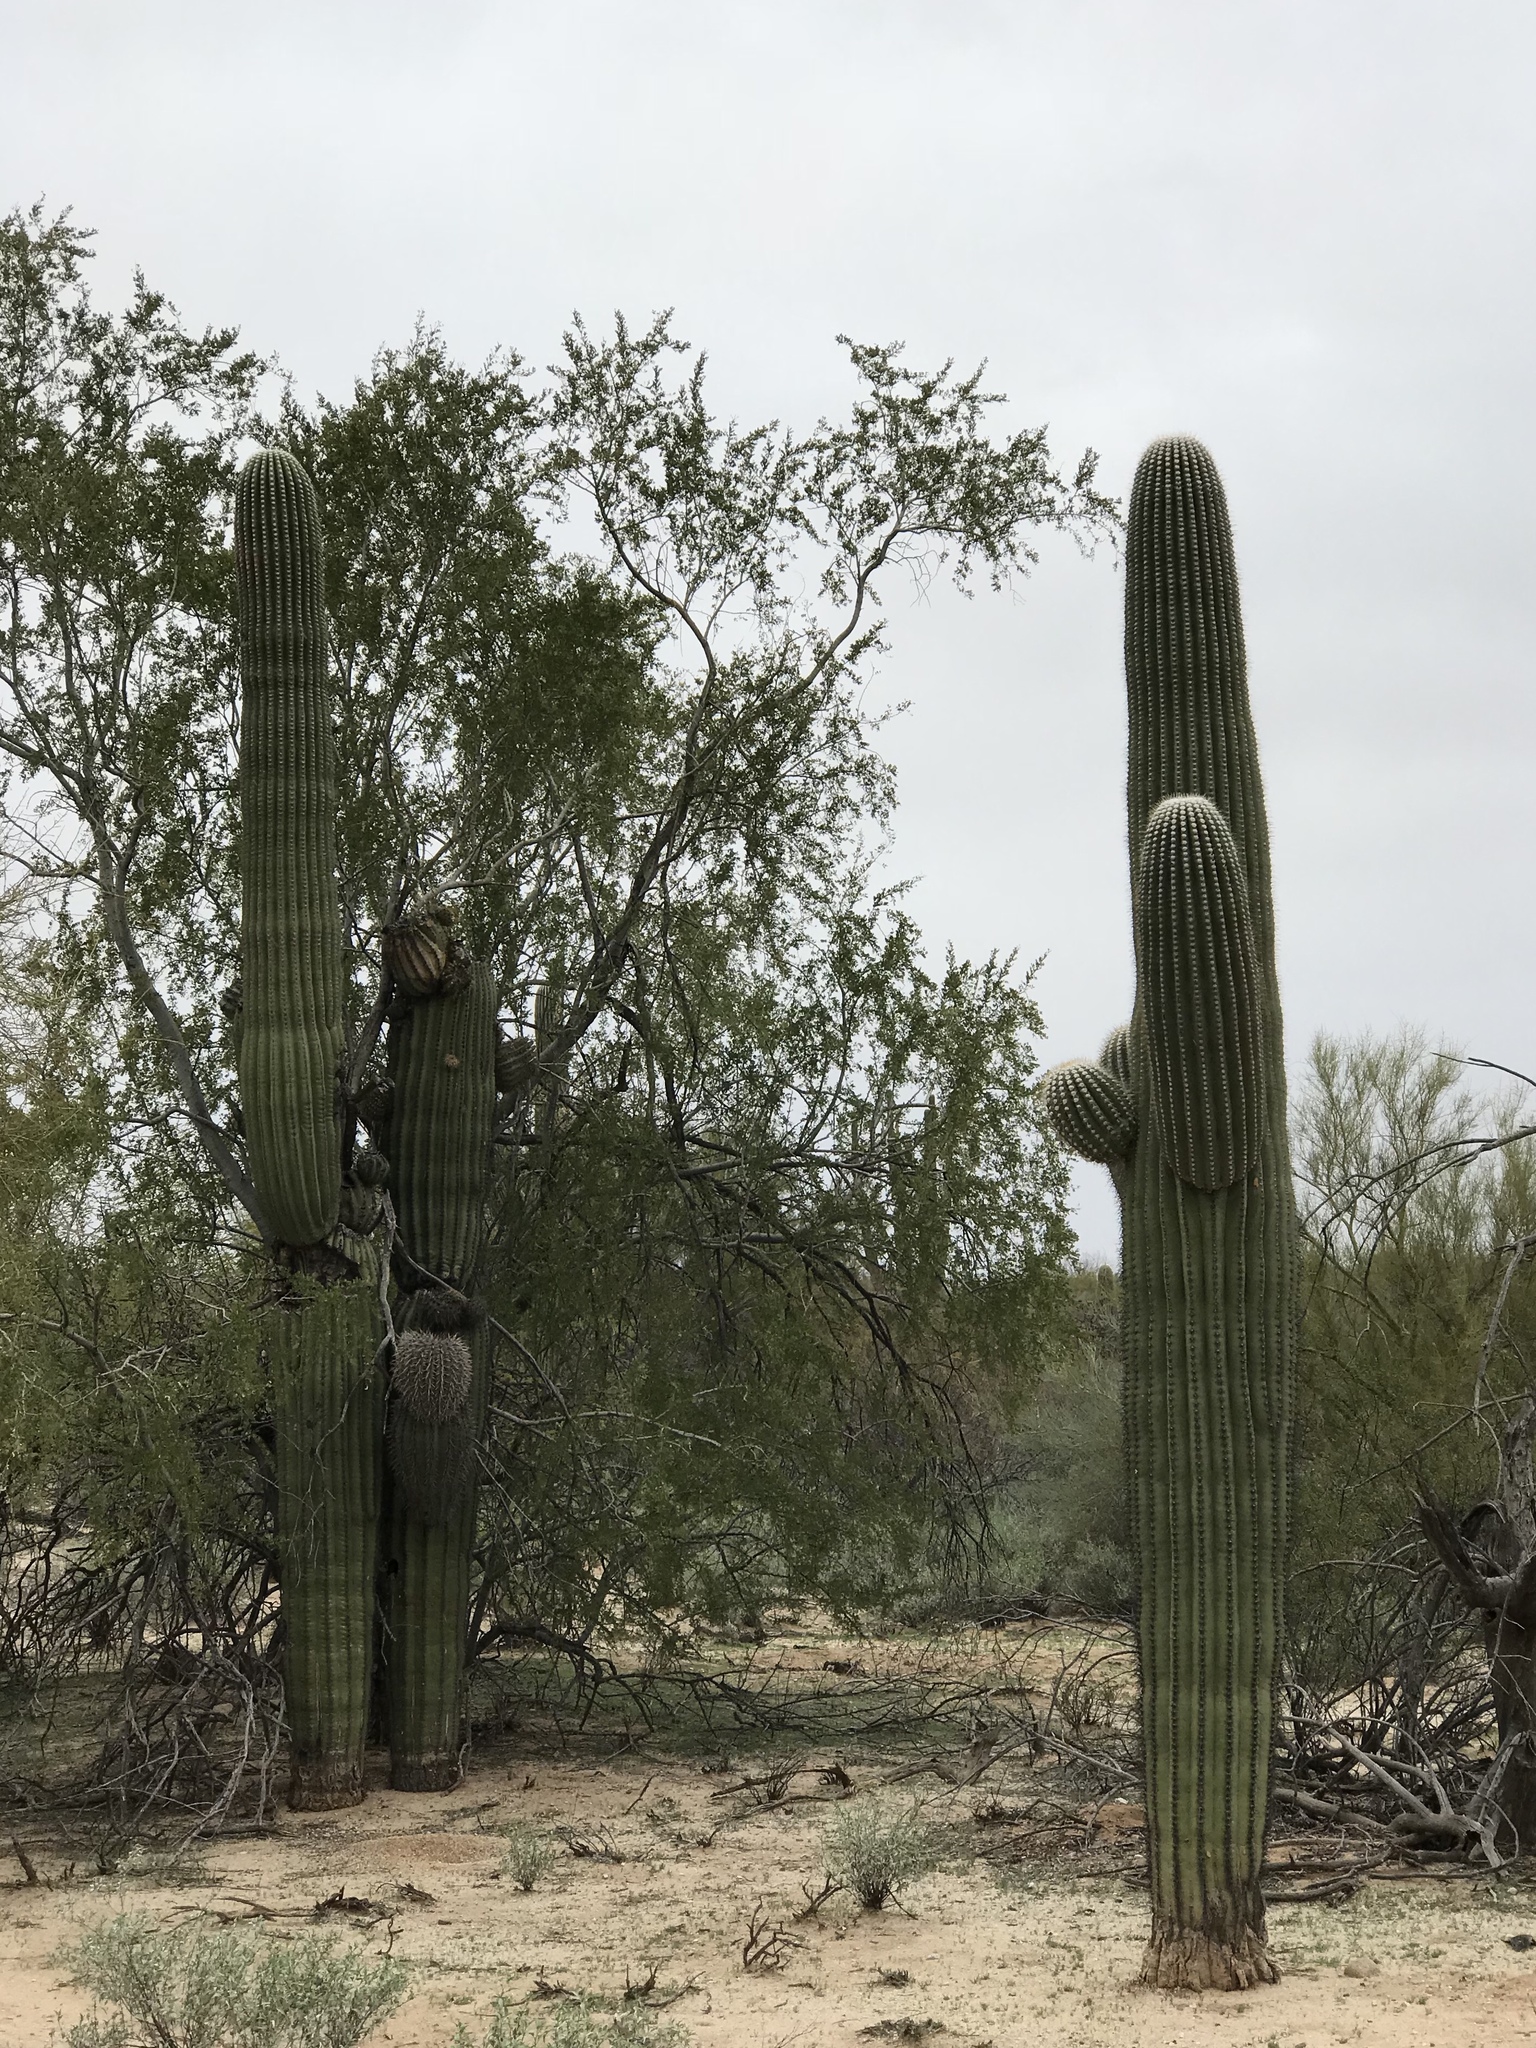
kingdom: Plantae
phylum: Tracheophyta
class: Magnoliopsida
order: Caryophyllales
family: Cactaceae
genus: Carnegiea
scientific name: Carnegiea gigantea
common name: Saguaro
